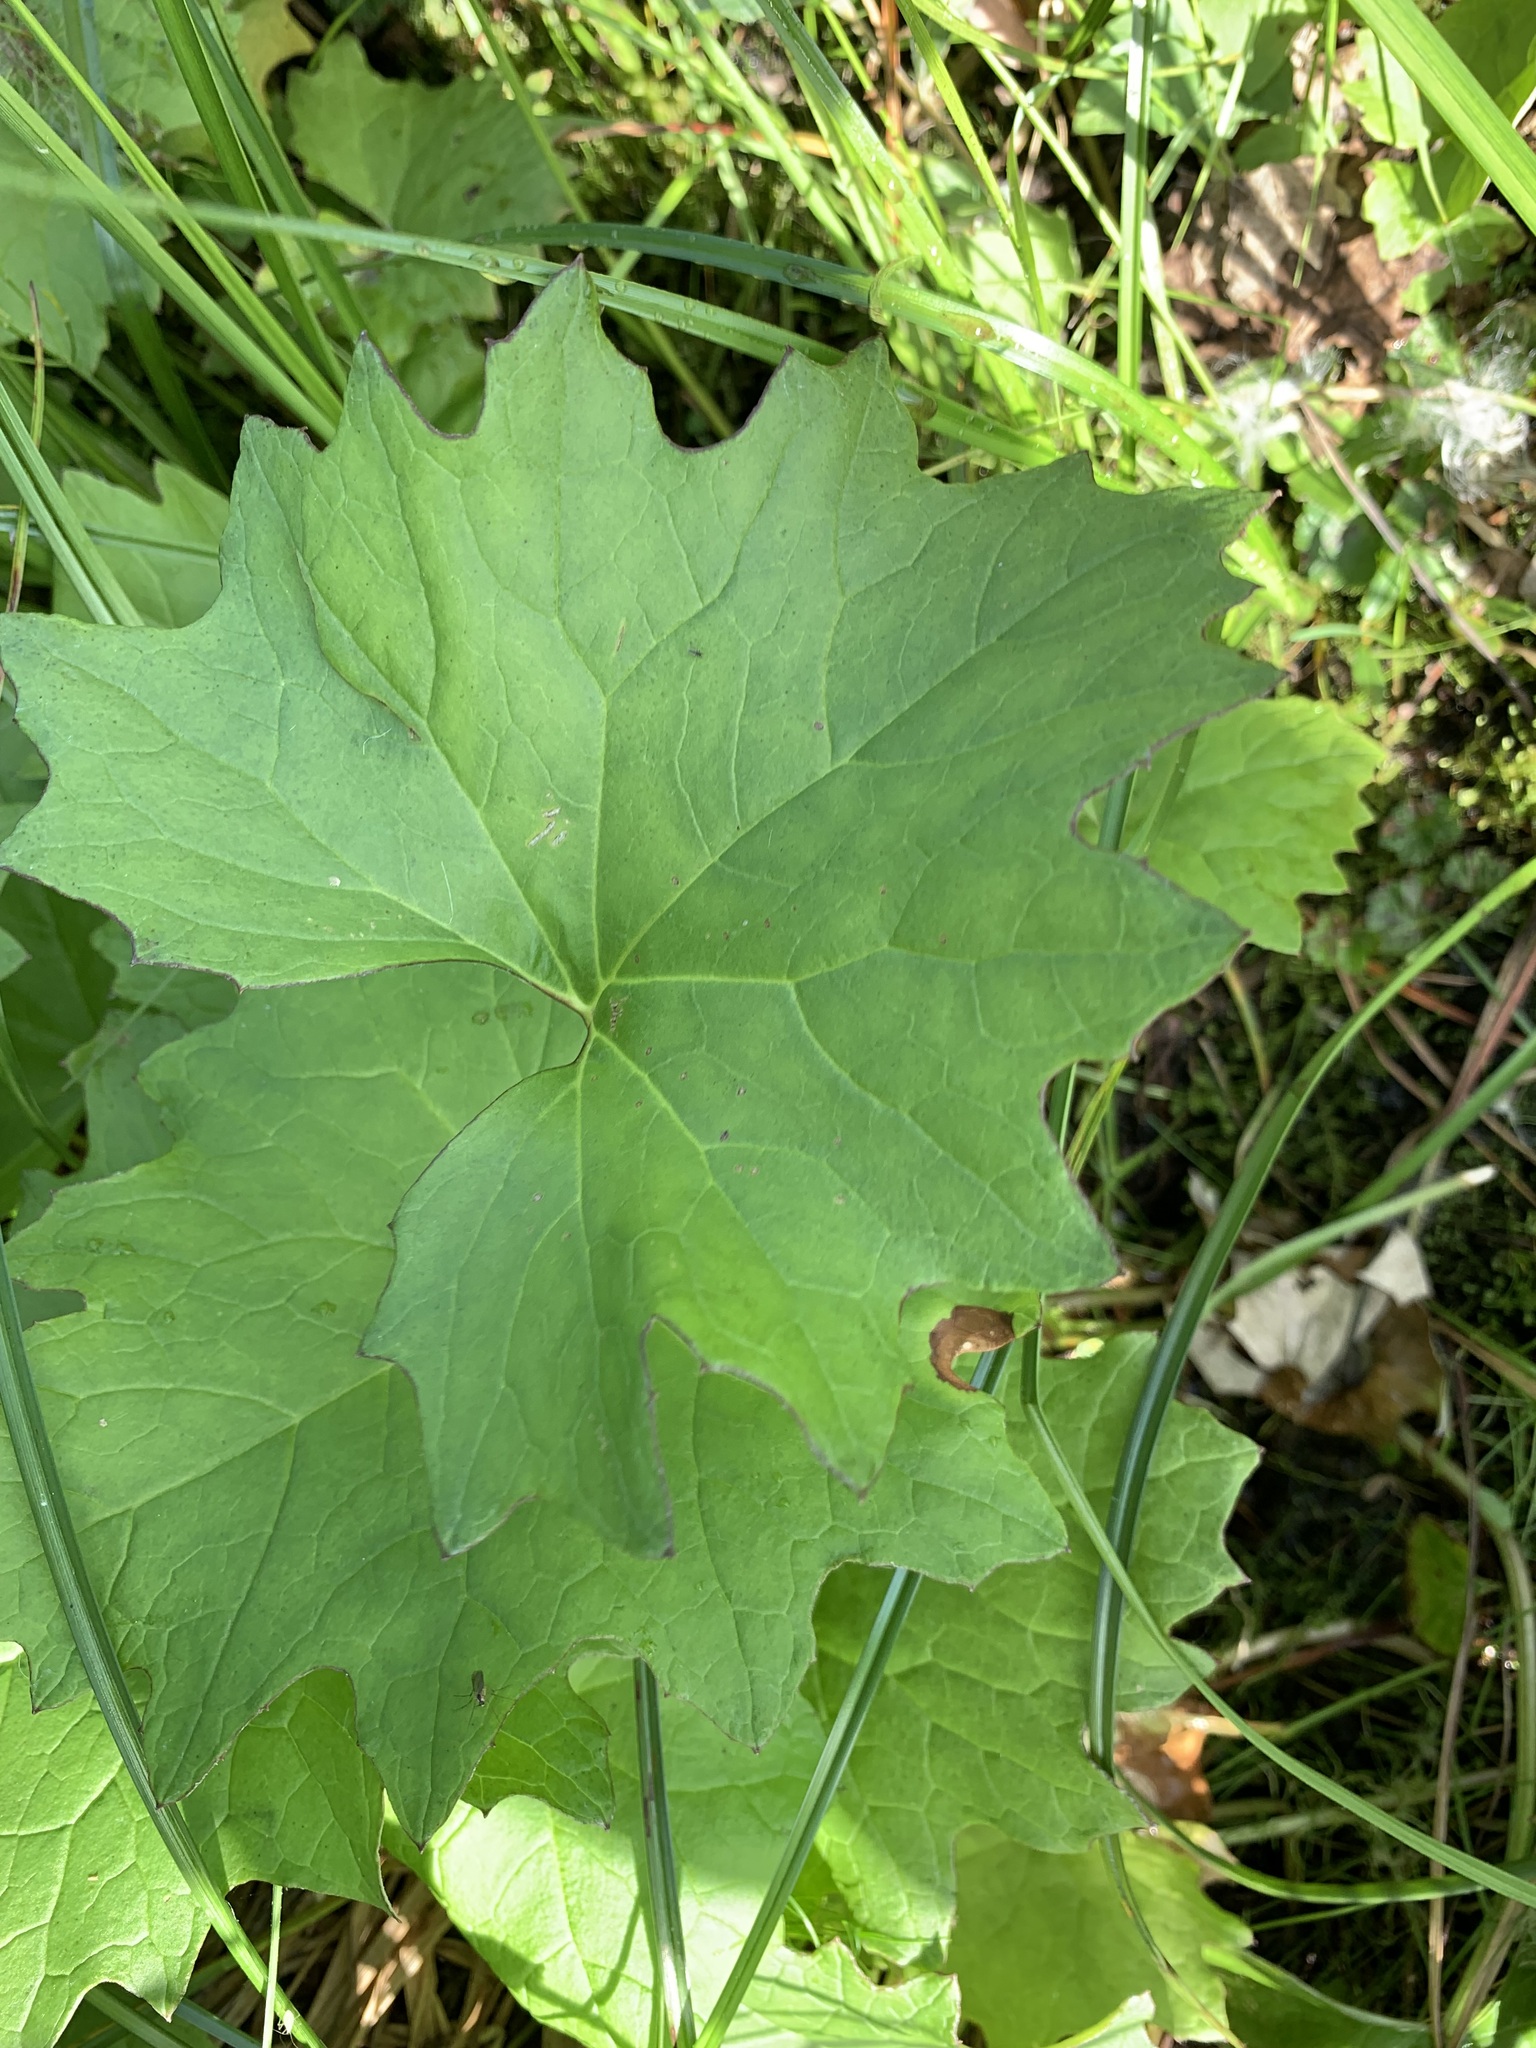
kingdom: Plantae
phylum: Tracheophyta
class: Magnoliopsida
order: Asterales
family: Asteraceae
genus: Petasites
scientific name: Petasites frigidus
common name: Arctic butterbur
